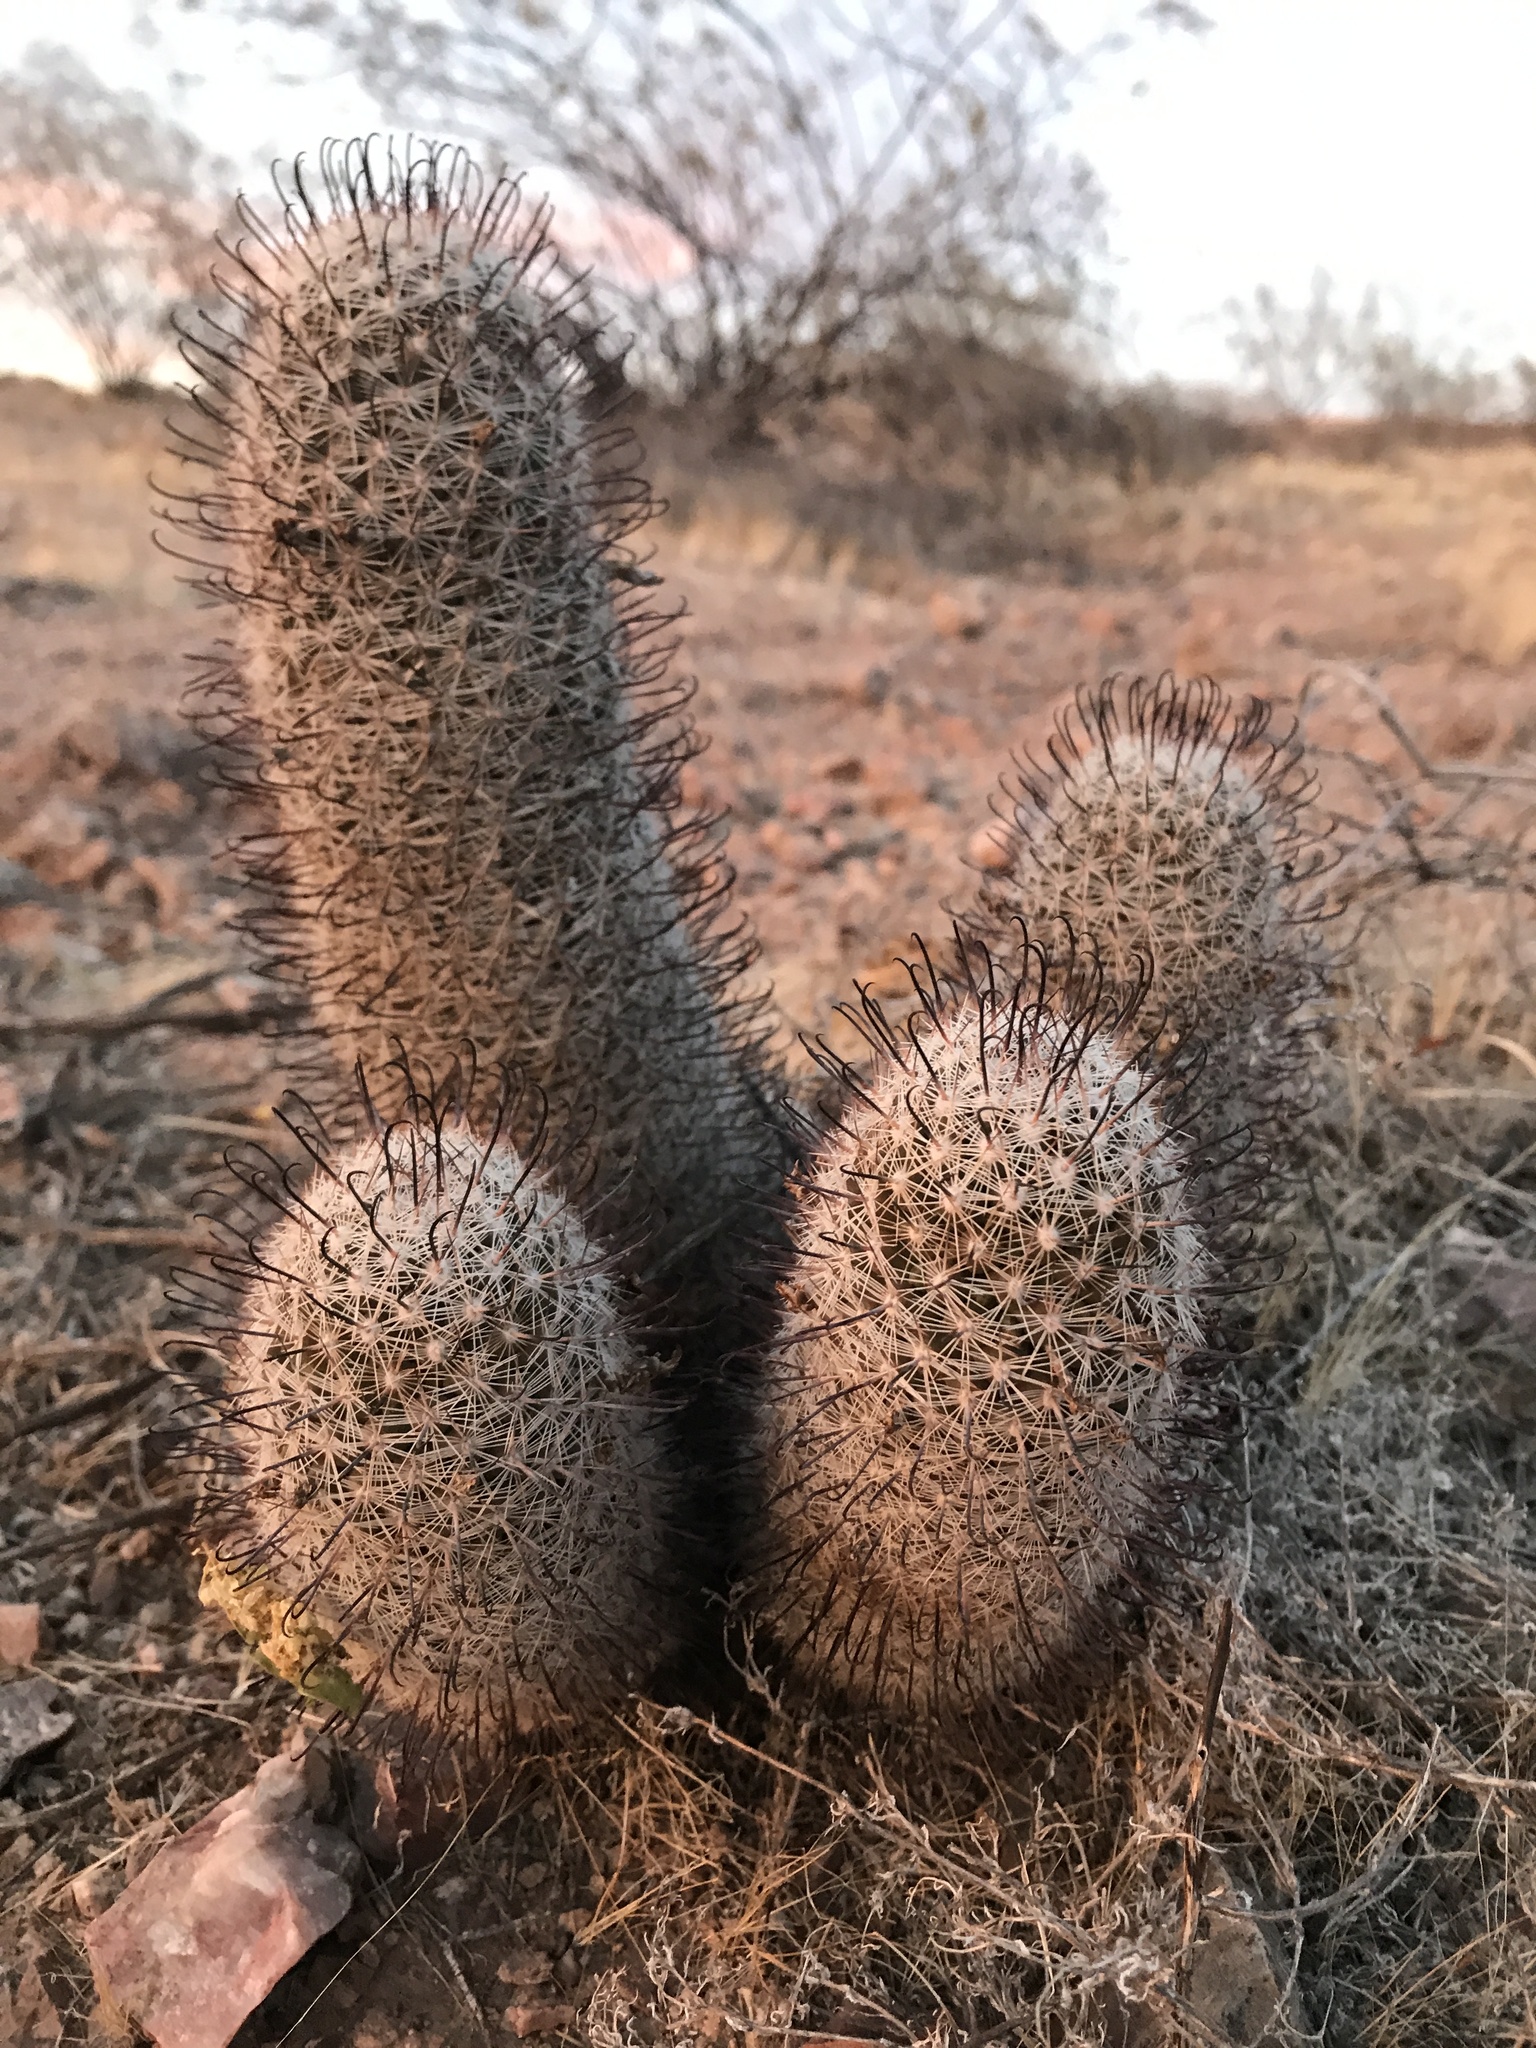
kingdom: Plantae
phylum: Tracheophyta
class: Magnoliopsida
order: Caryophyllales
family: Cactaceae
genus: Cochemiea
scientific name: Cochemiea grahamii
